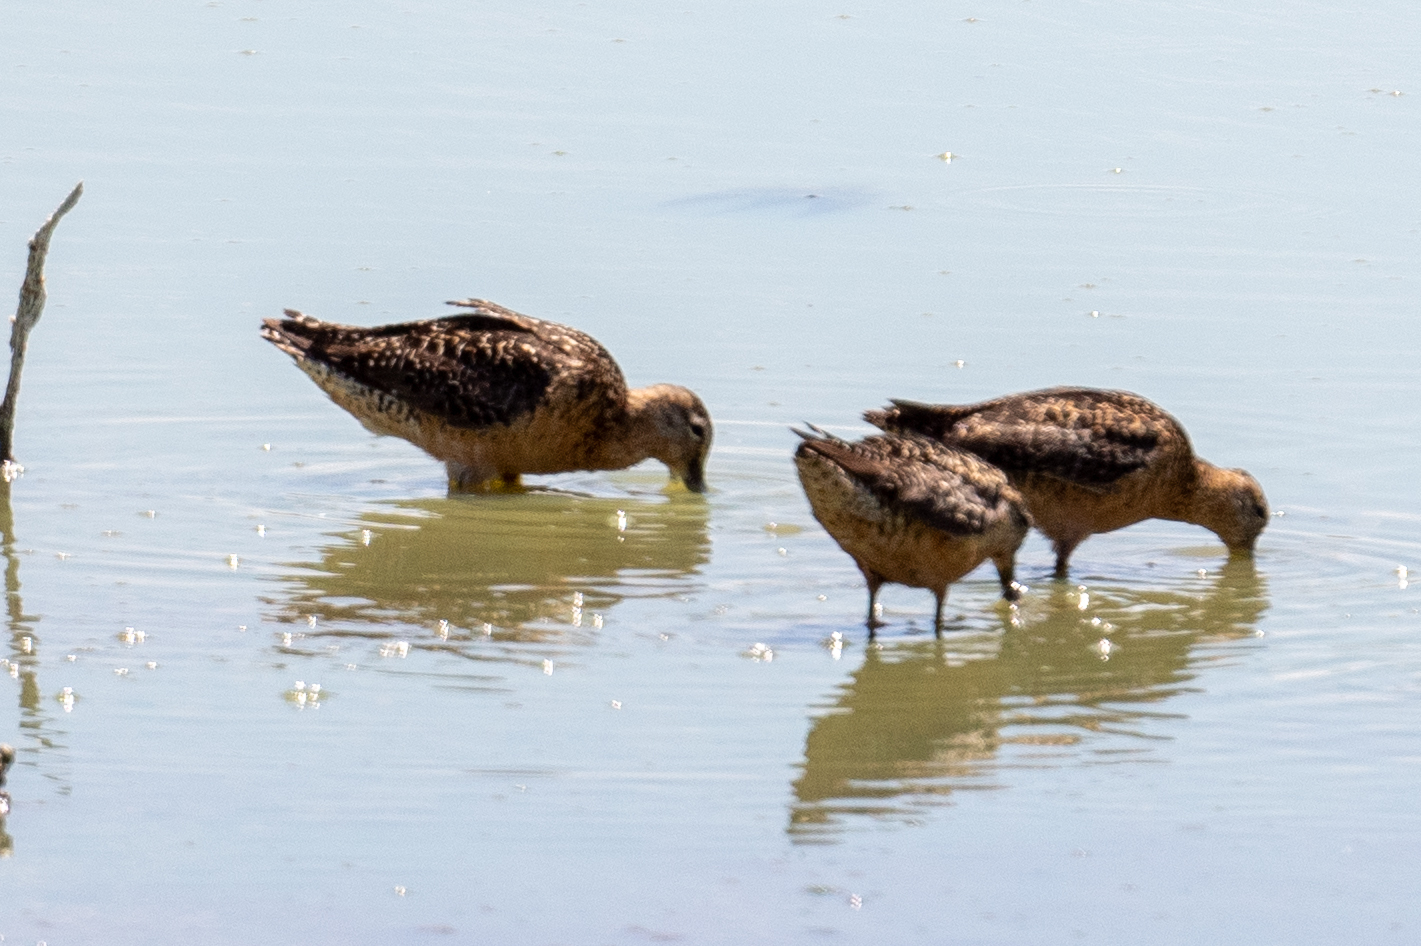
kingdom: Animalia
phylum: Chordata
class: Aves
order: Charadriiformes
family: Scolopacidae
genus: Limnodromus
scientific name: Limnodromus scolopaceus
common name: Long-billed dowitcher
